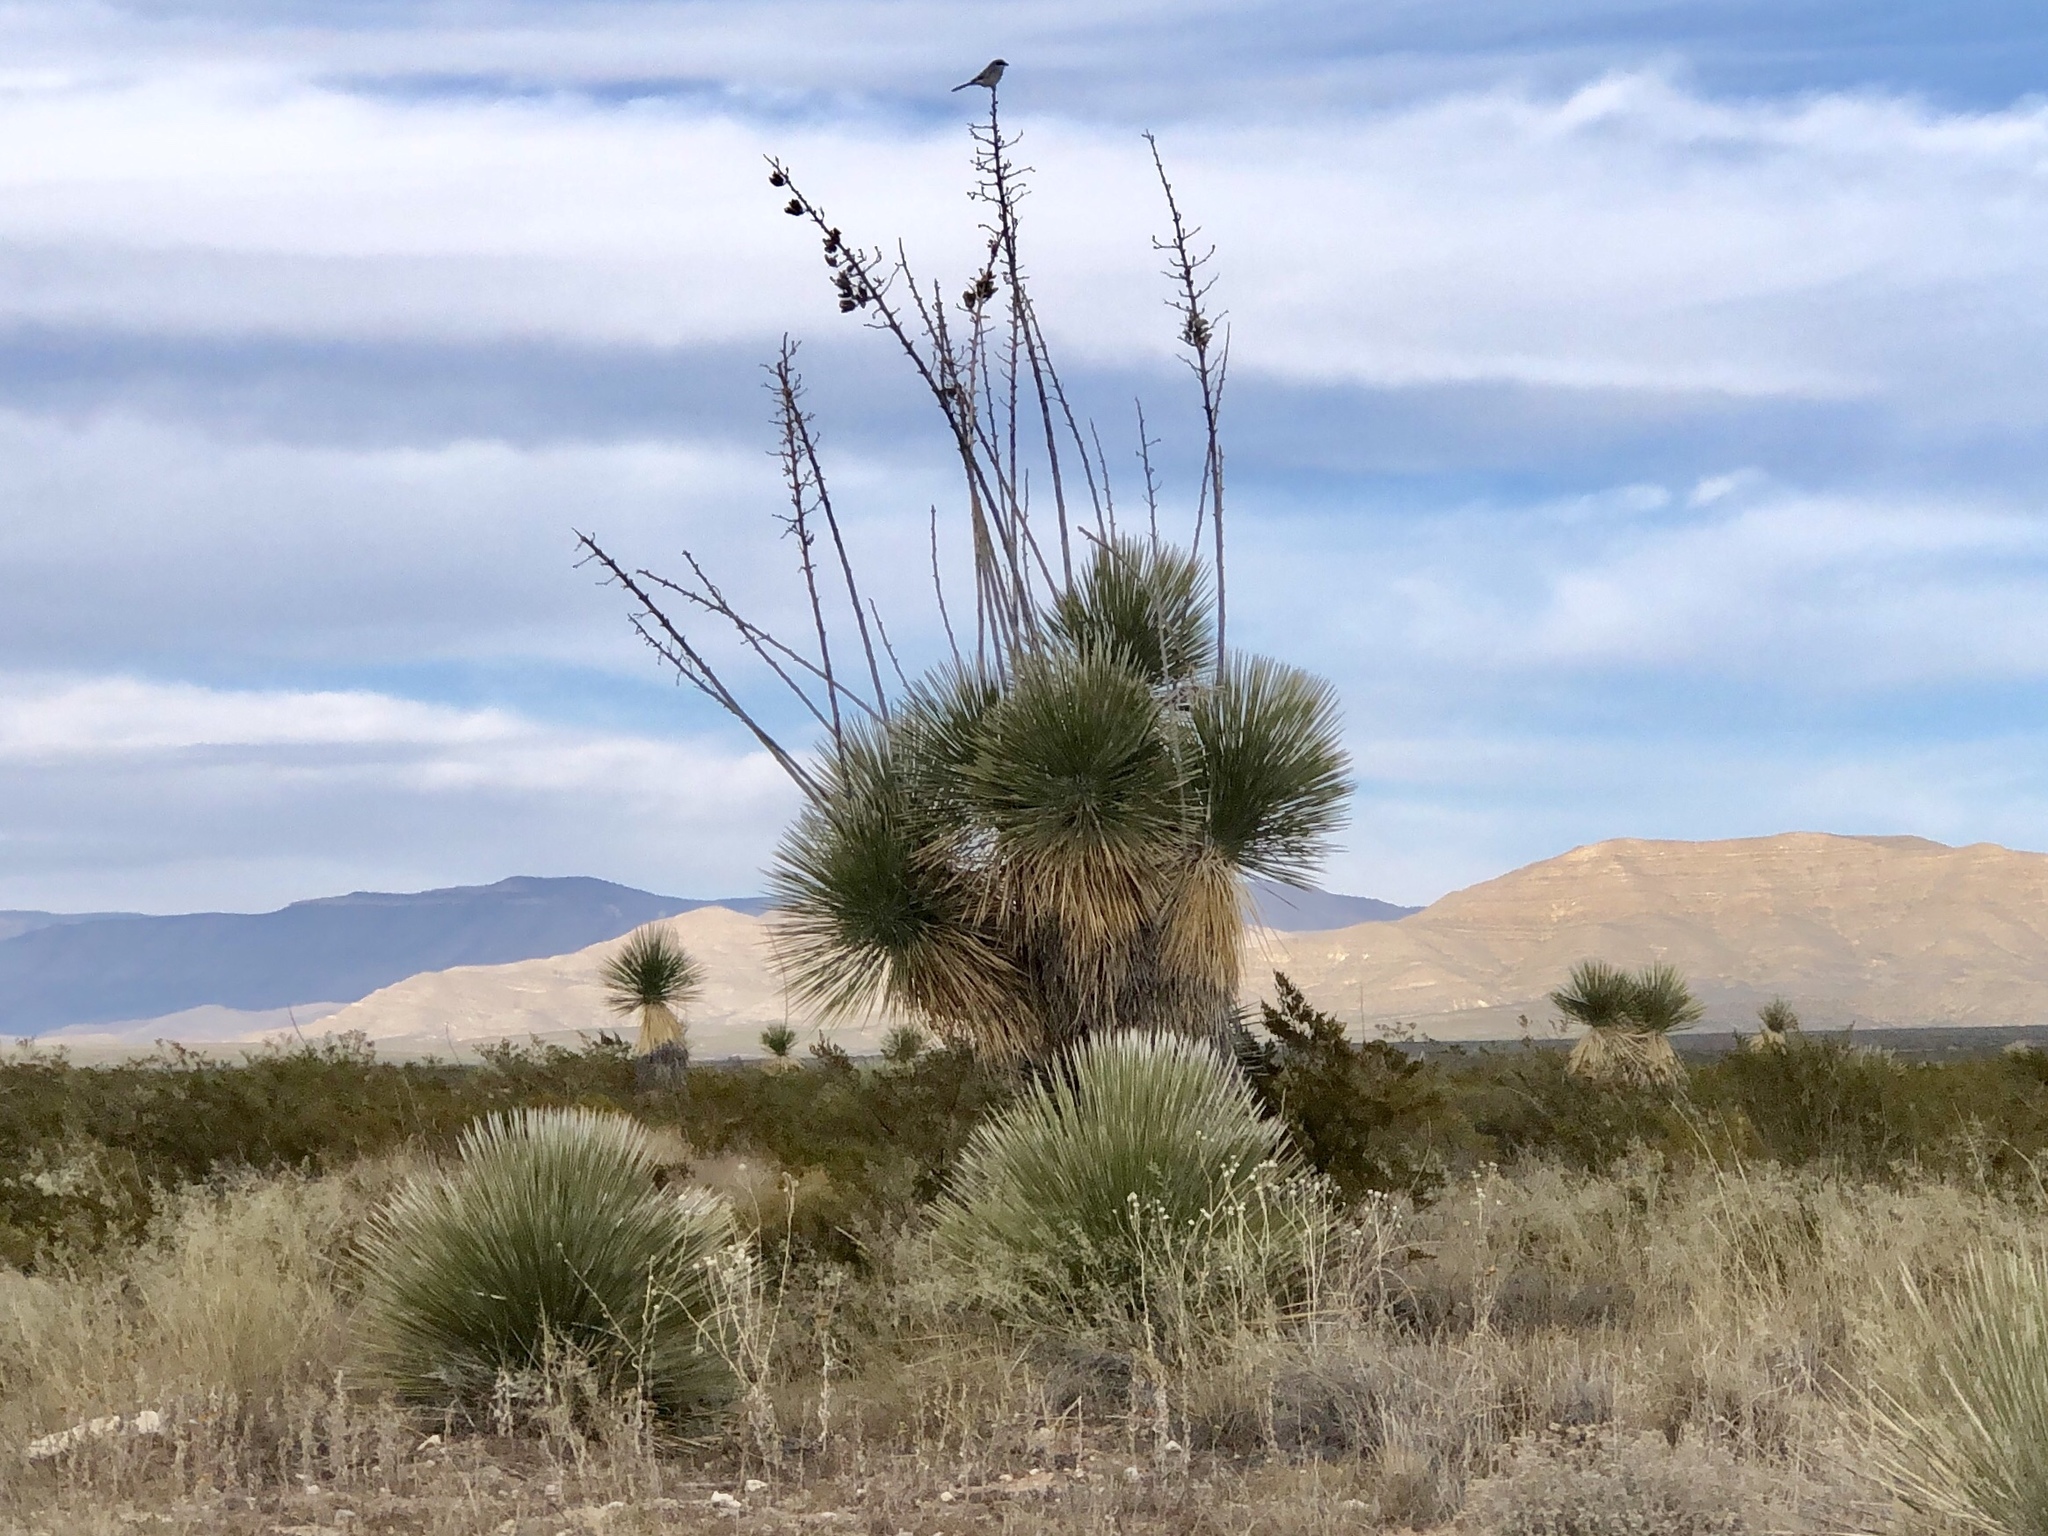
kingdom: Plantae
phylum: Tracheophyta
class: Liliopsida
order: Asparagales
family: Asparagaceae
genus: Yucca
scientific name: Yucca elata
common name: Palmella
